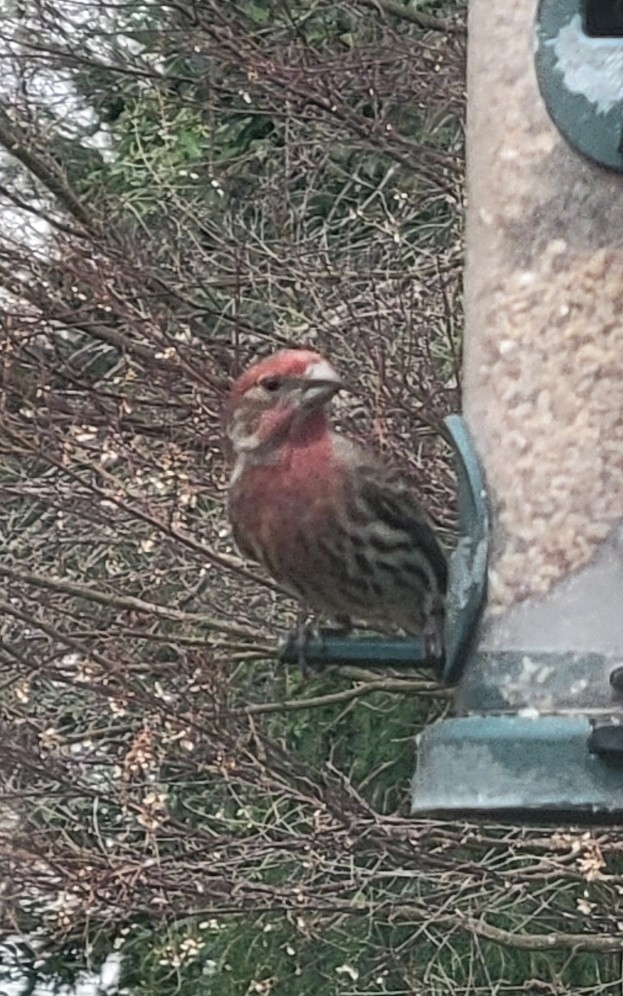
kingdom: Animalia
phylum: Chordata
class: Aves
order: Passeriformes
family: Fringillidae
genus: Haemorhous
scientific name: Haemorhous mexicanus
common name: House finch
